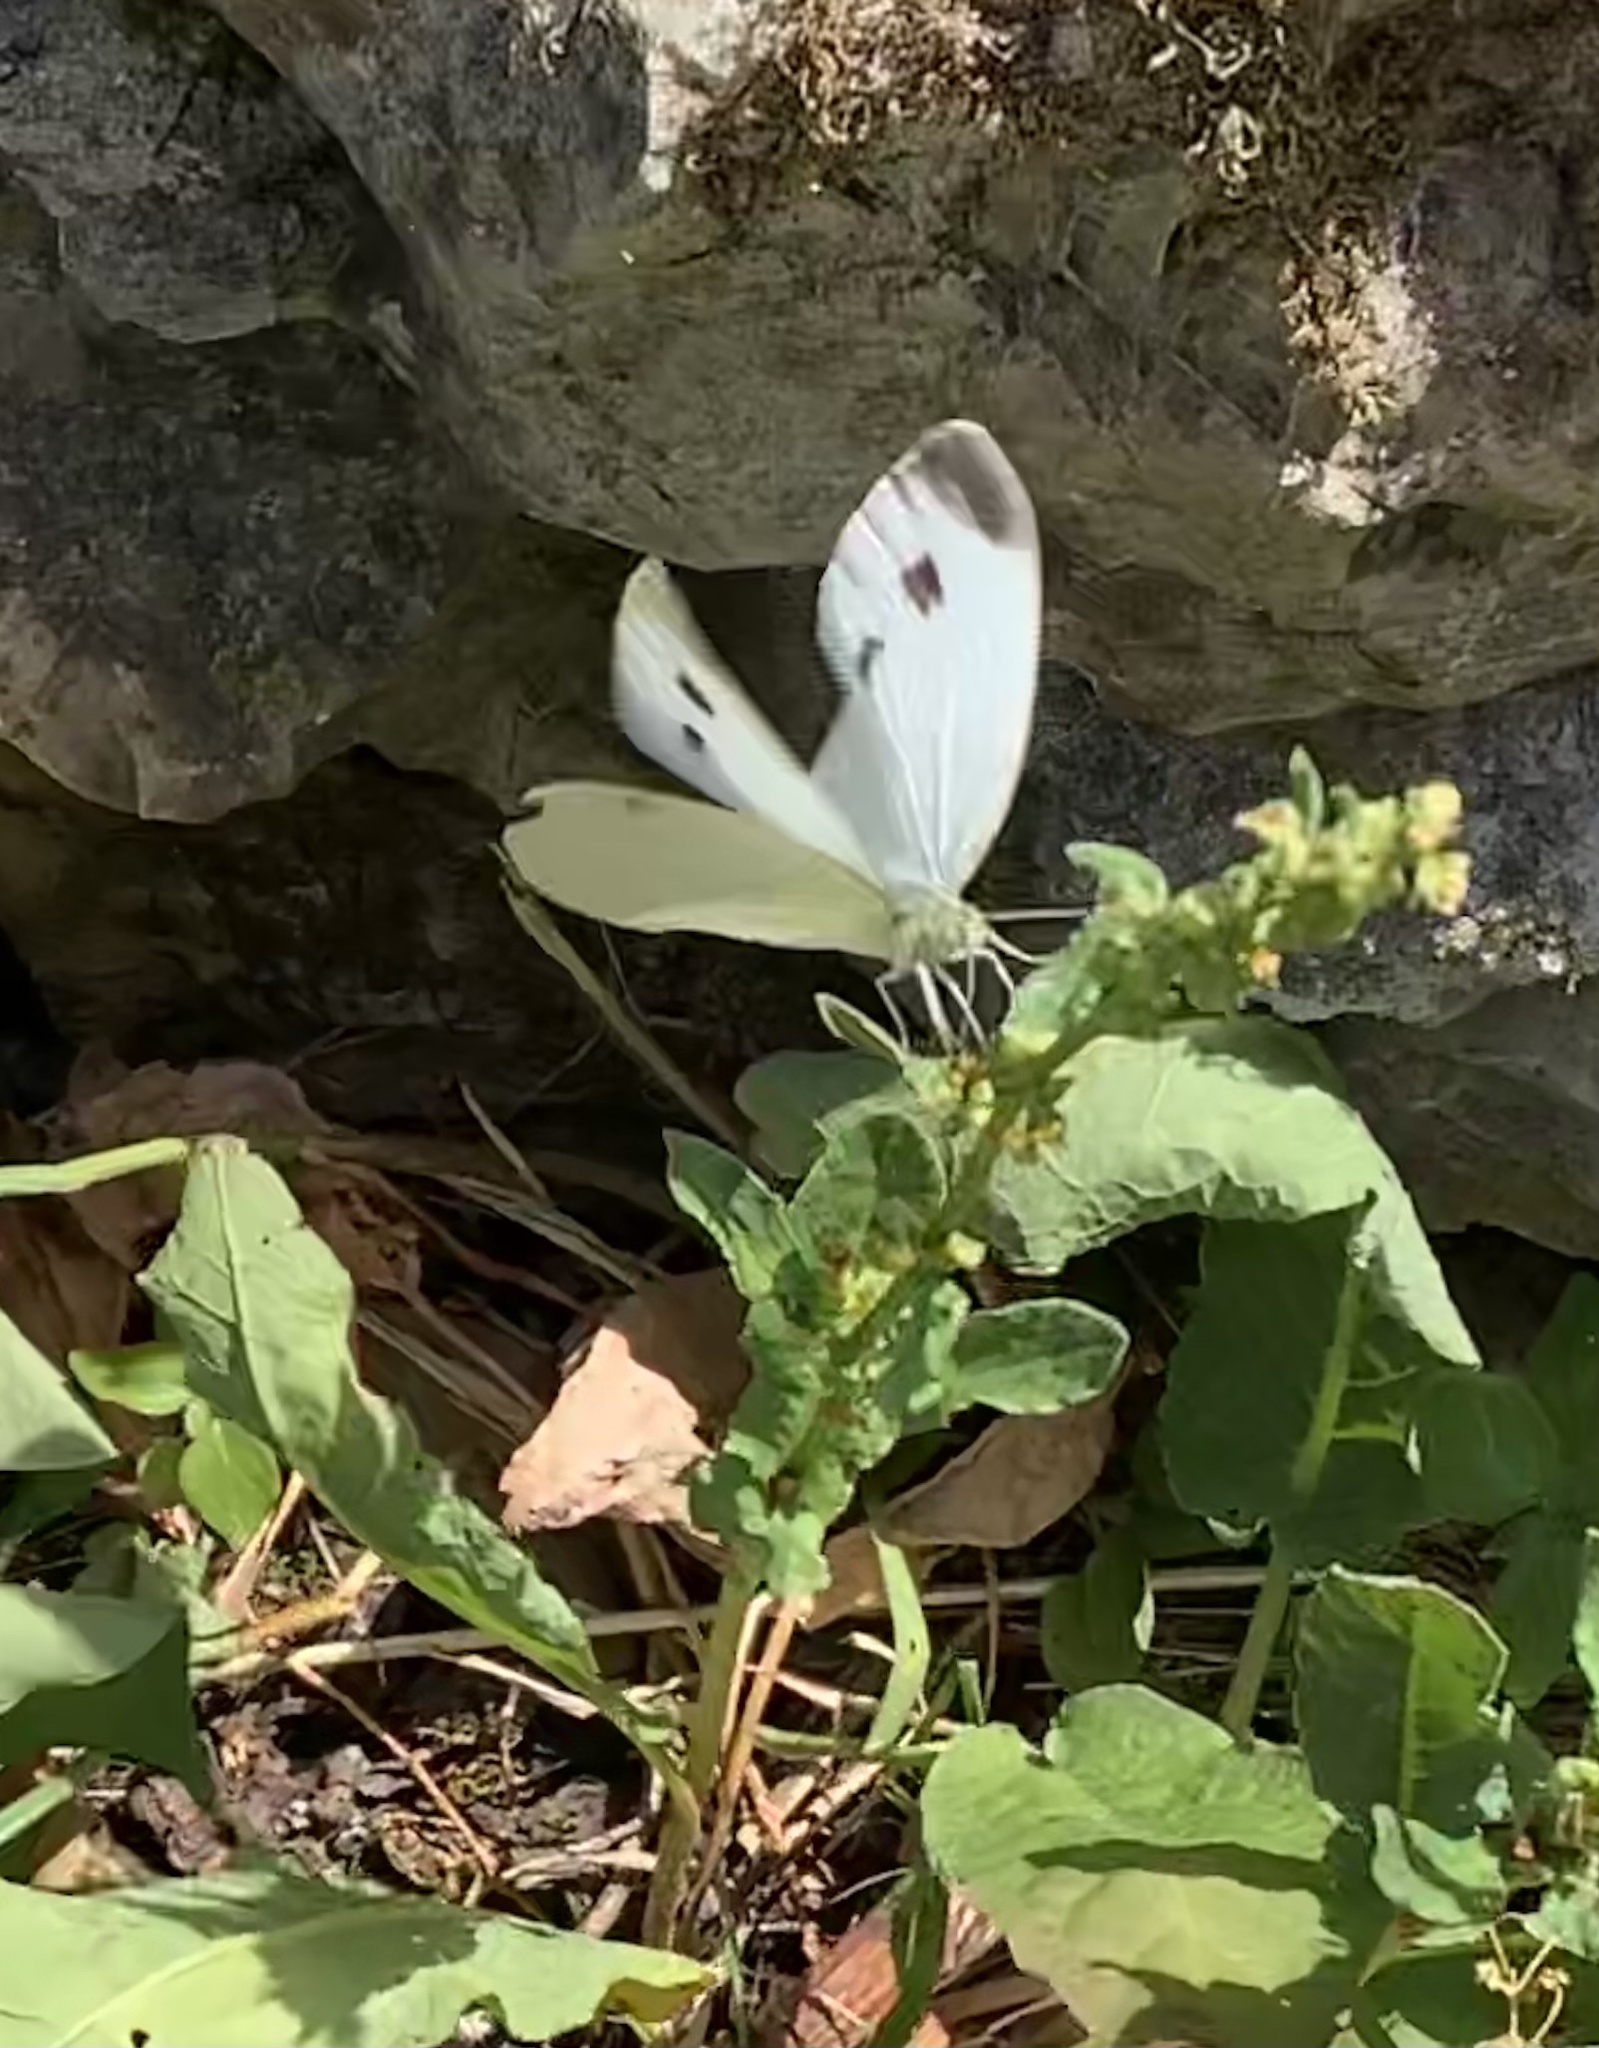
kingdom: Animalia
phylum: Arthropoda
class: Insecta
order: Lepidoptera
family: Pieridae
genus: Pieris
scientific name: Pieris rapae
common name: Small white
